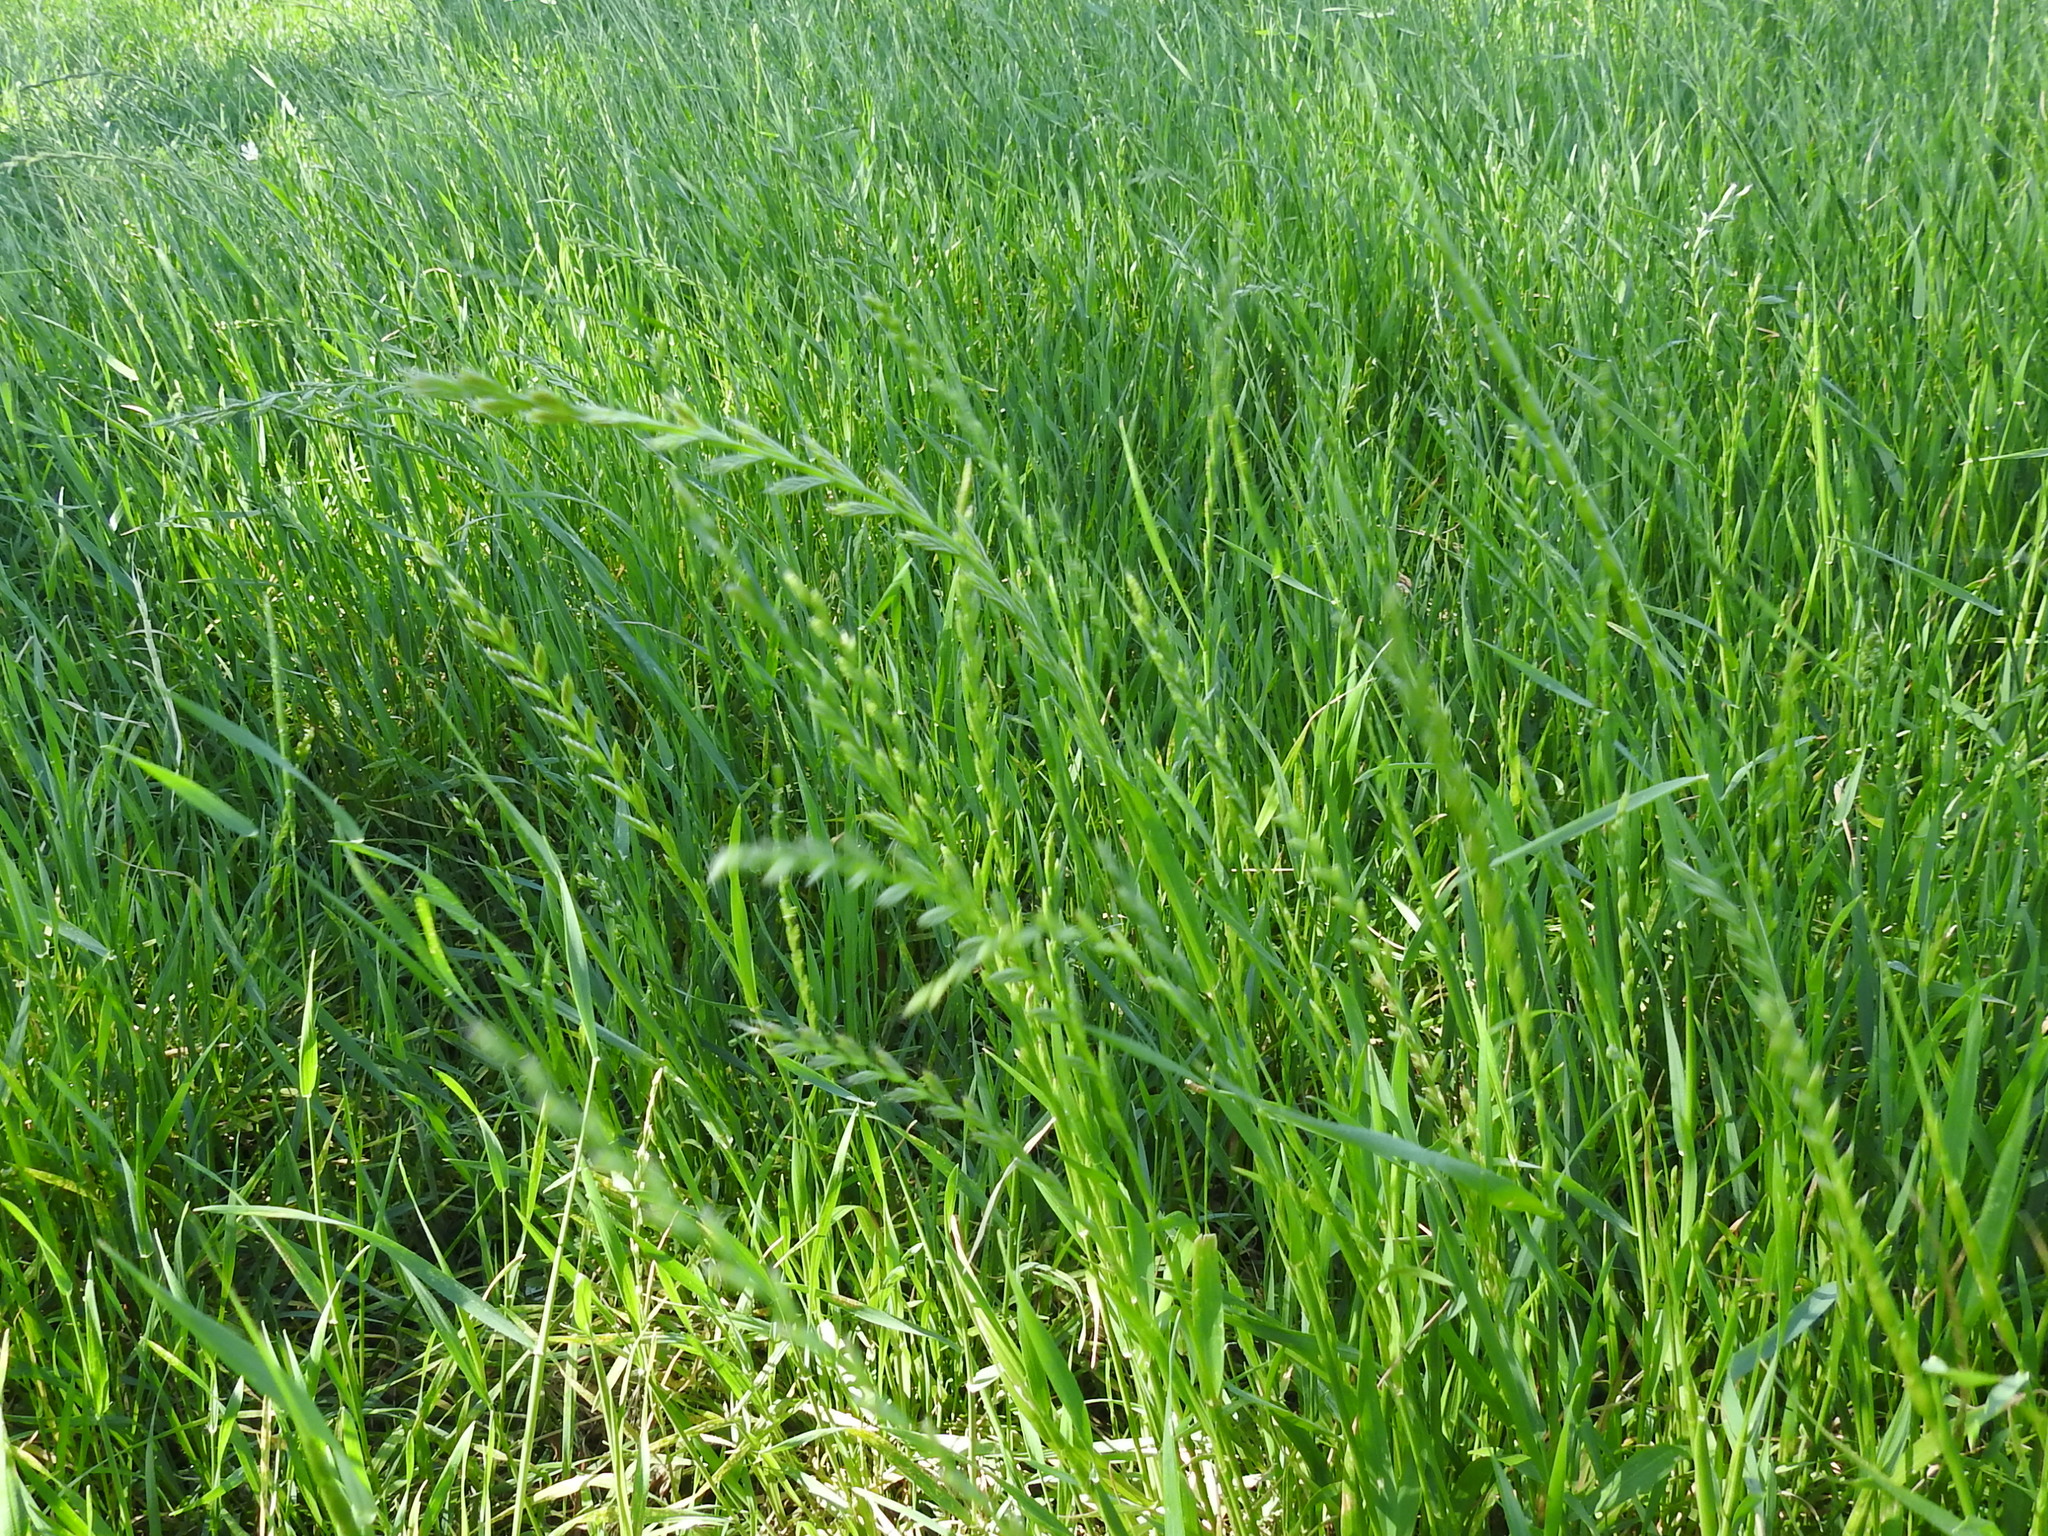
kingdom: Plantae
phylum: Tracheophyta
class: Liliopsida
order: Poales
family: Poaceae
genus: Lolium
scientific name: Lolium perenne
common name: Perennial ryegrass
